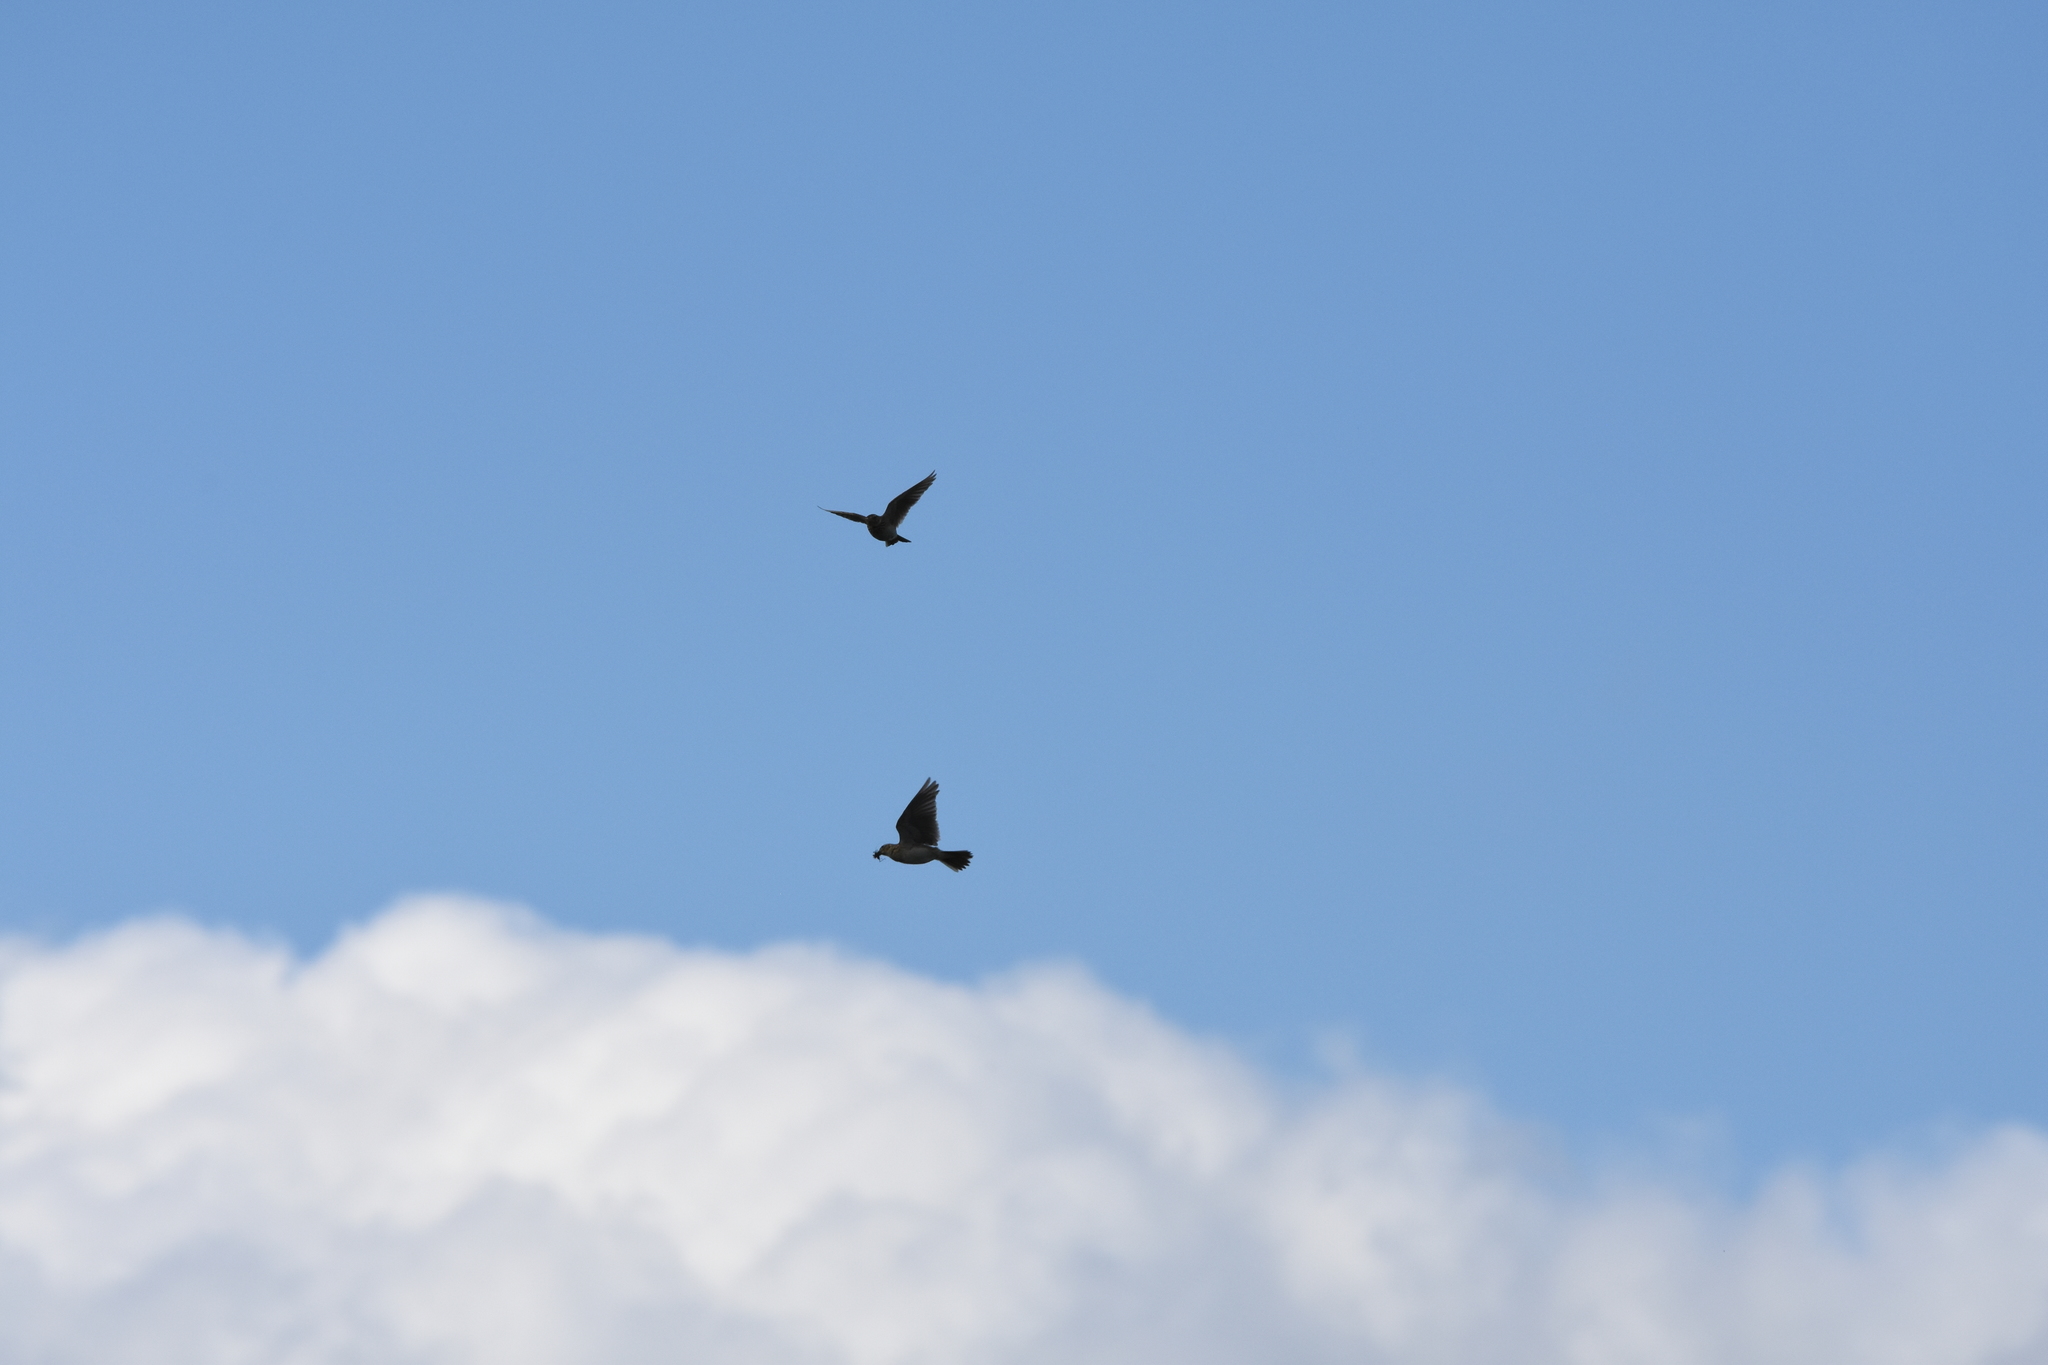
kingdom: Animalia
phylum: Chordata
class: Aves
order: Passeriformes
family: Alaudidae
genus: Alauda
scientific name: Alauda arvensis
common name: Eurasian skylark
